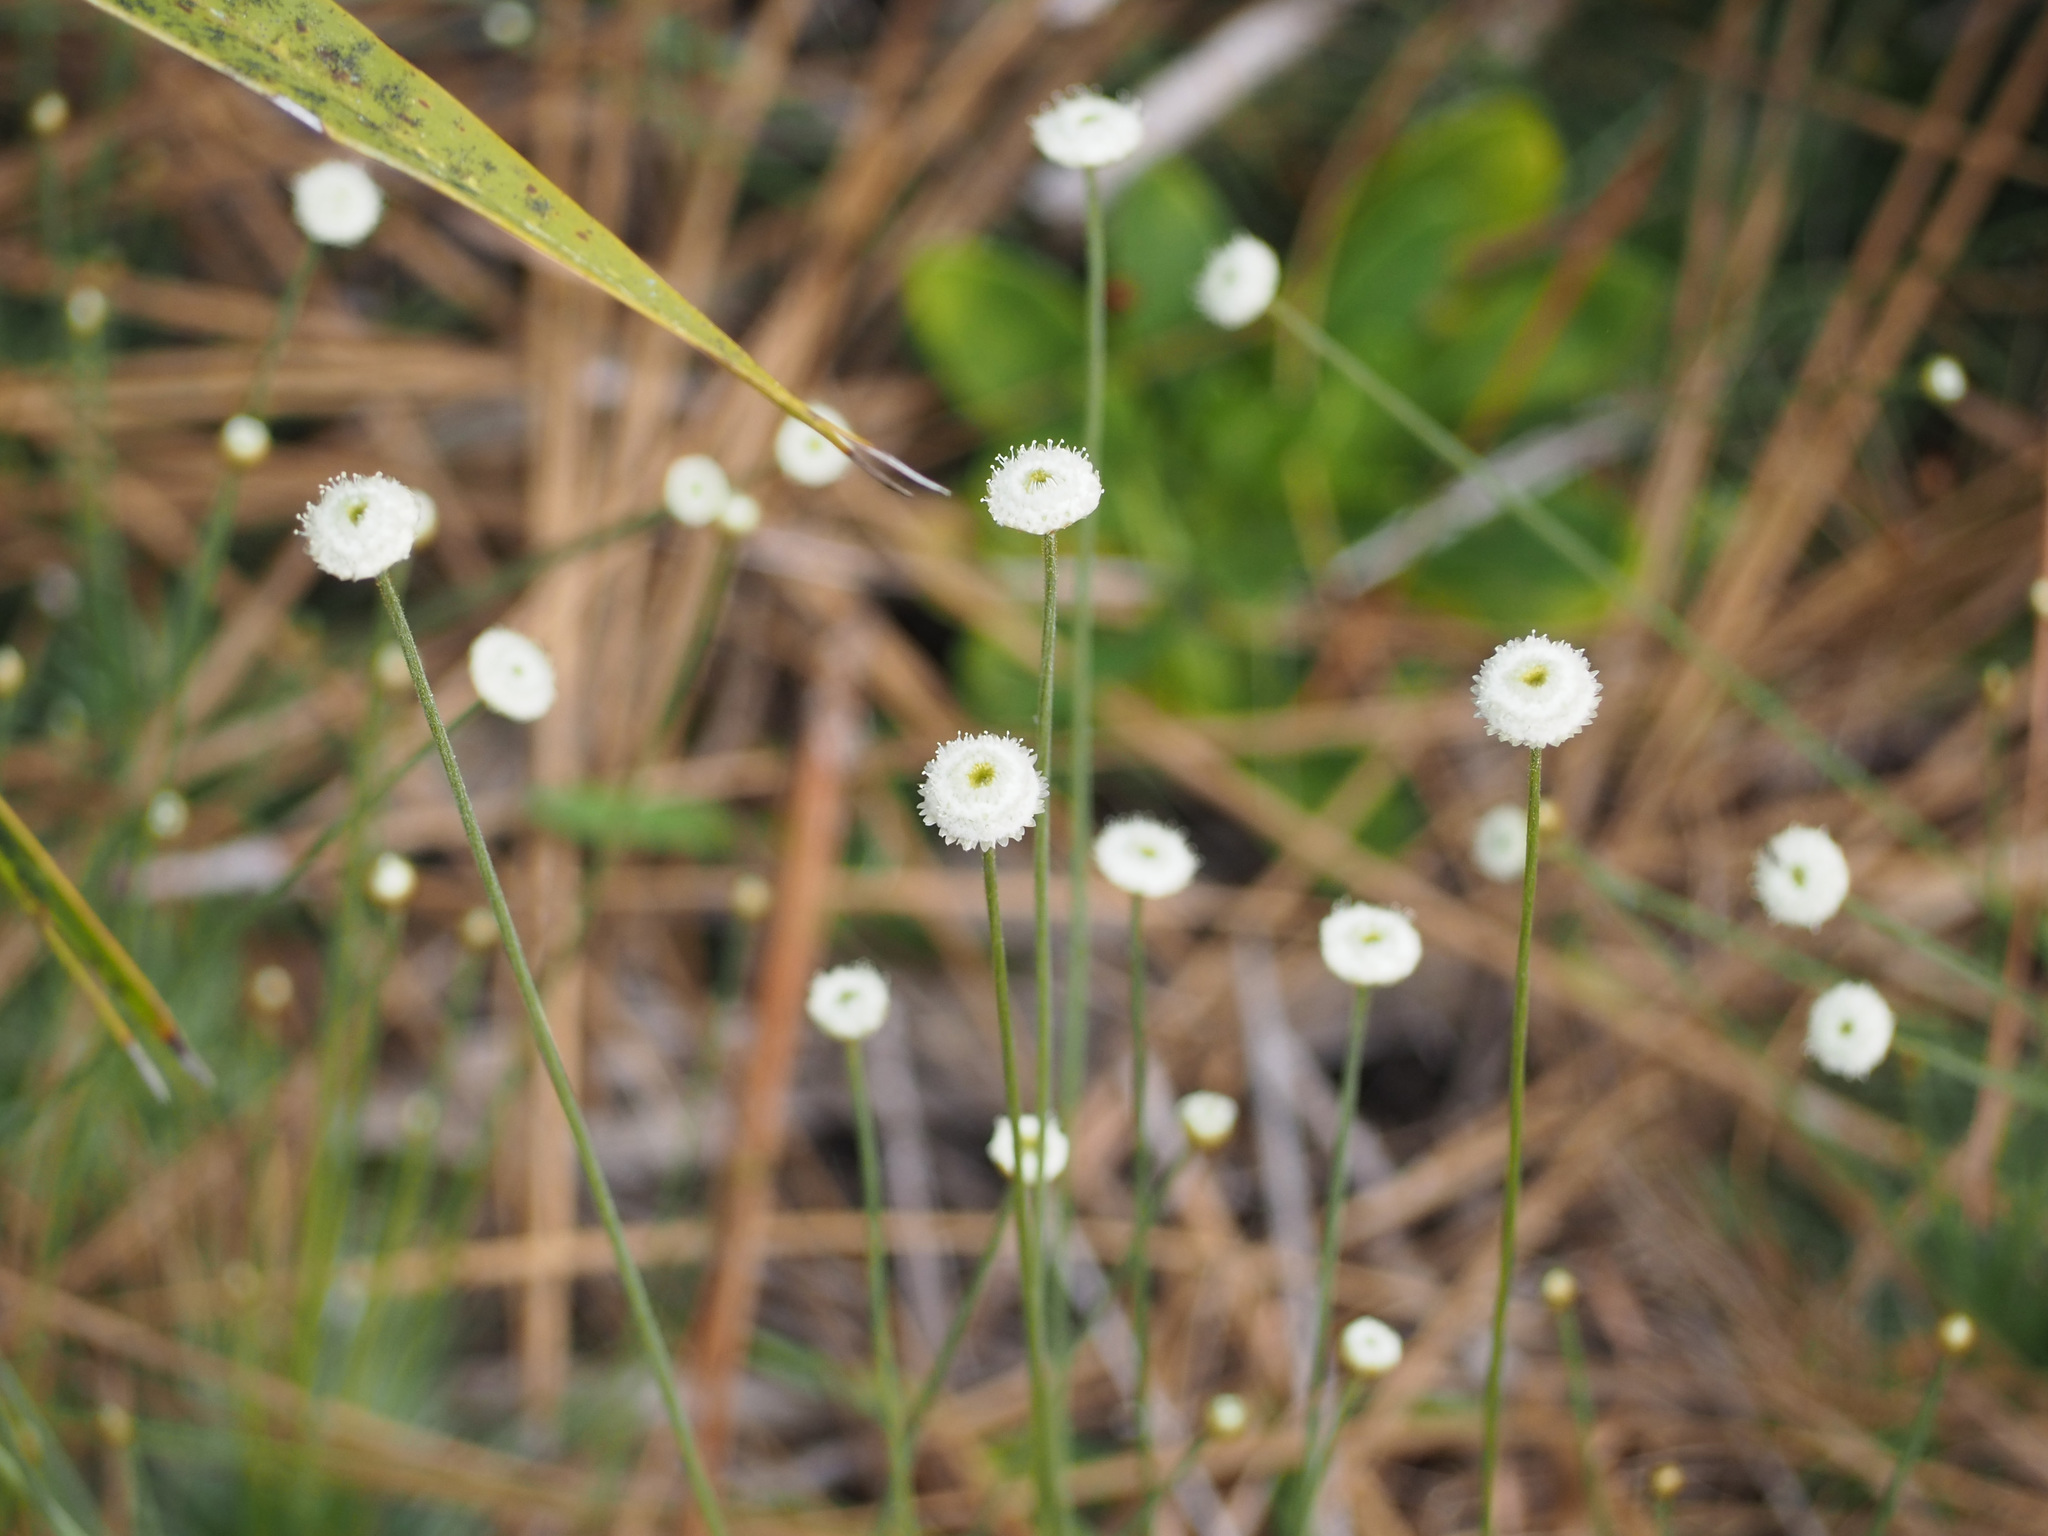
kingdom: Plantae
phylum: Tracheophyta
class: Liliopsida
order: Poales
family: Eriocaulaceae
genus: Syngonanthus
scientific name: Syngonanthus flavidulus
